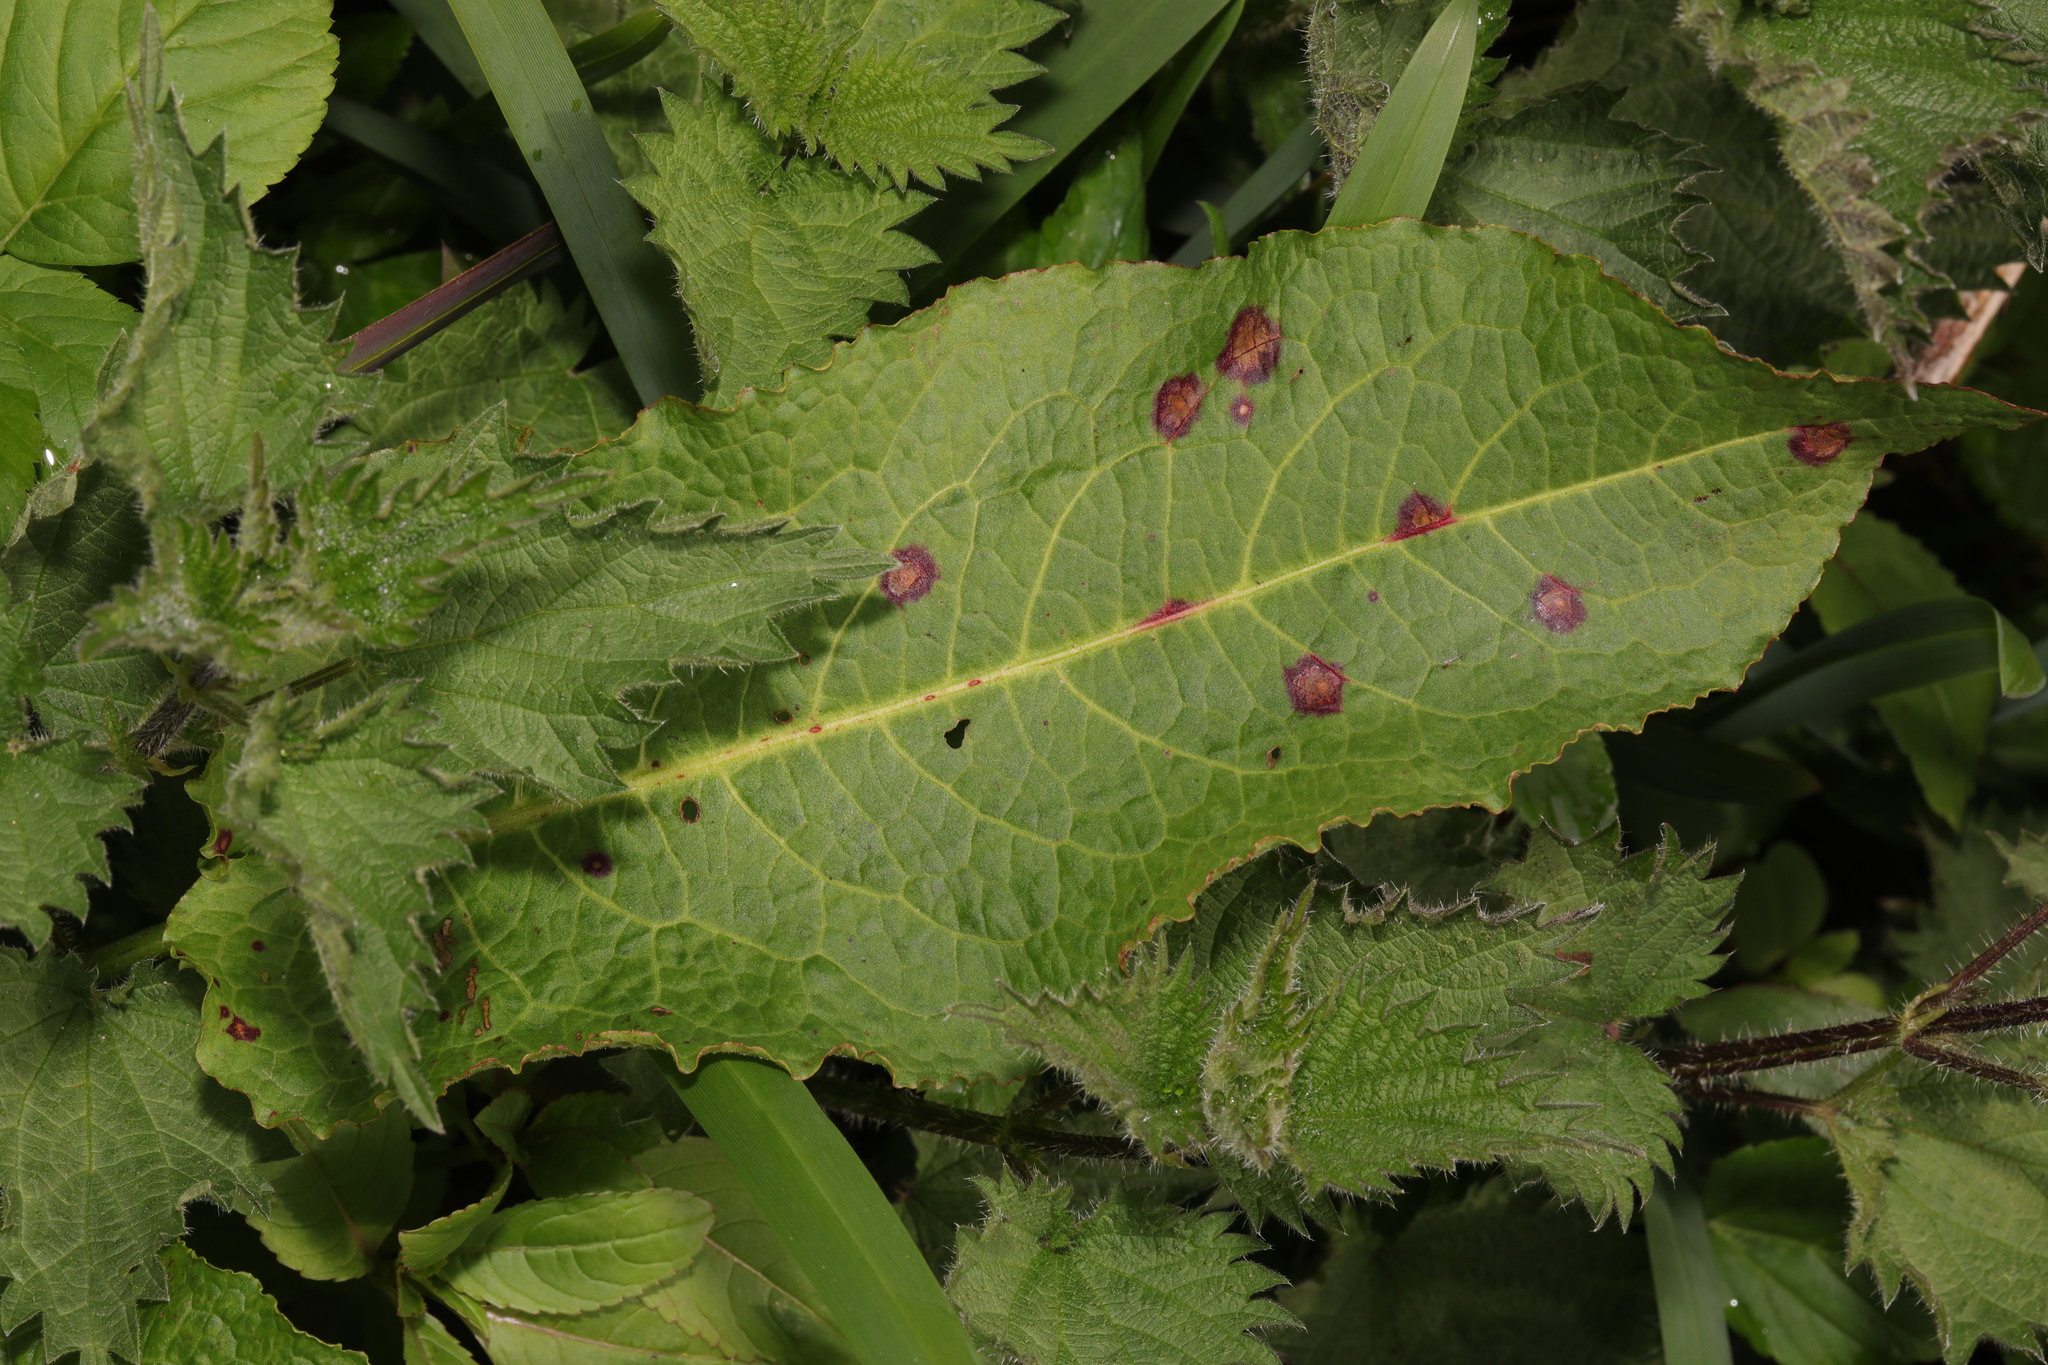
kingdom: Plantae
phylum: Tracheophyta
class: Magnoliopsida
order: Caryophyllales
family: Polygonaceae
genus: Rumex
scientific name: Rumex obtusifolius
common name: Bitter dock
